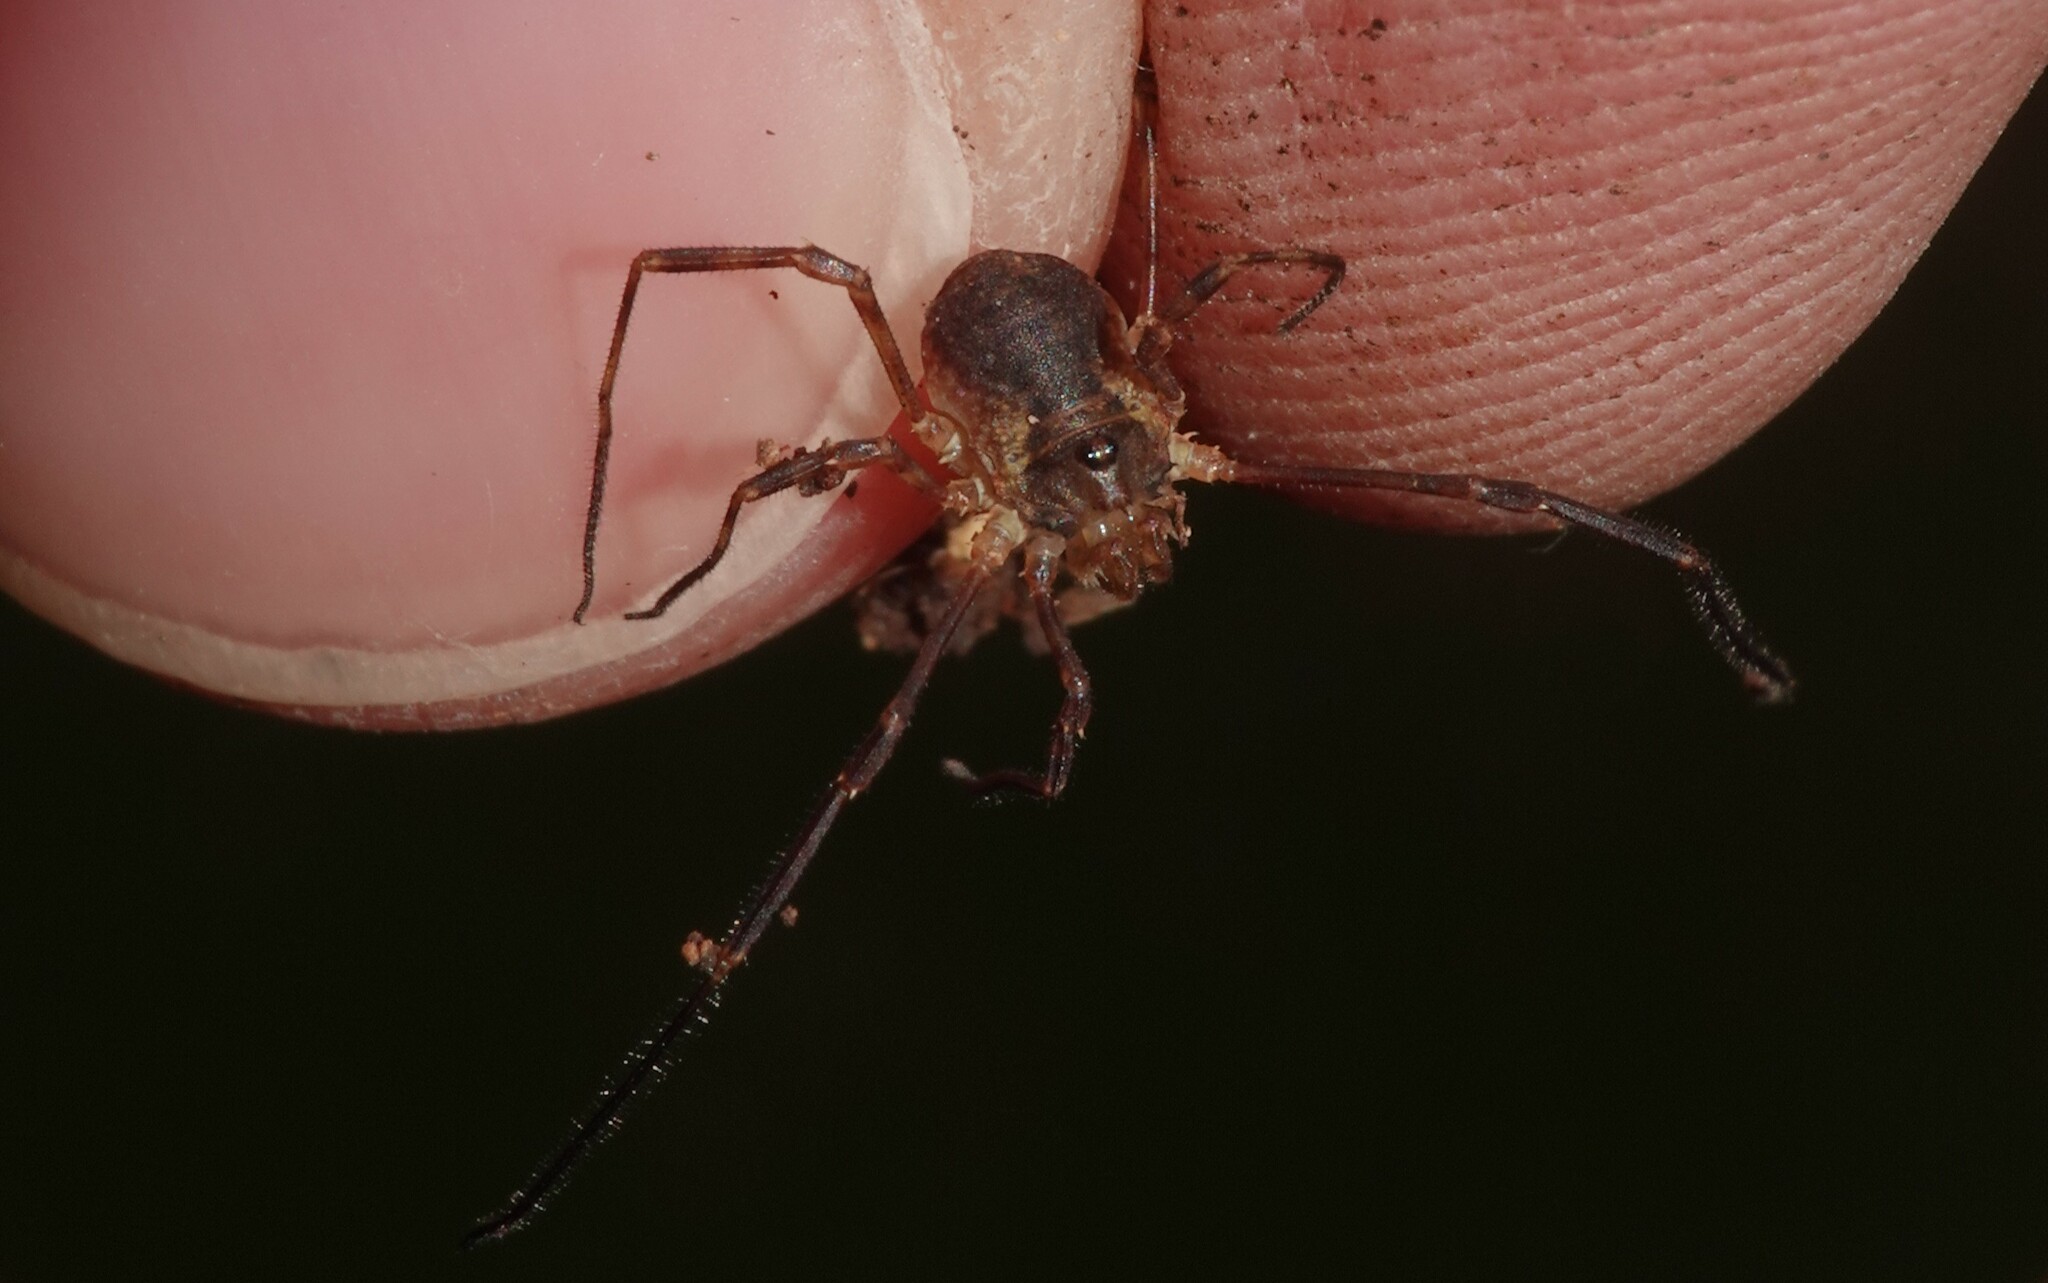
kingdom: Animalia
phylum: Arthropoda
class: Arachnida
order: Opiliones
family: Phalangiidae
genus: Lophopilio
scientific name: Lophopilio palpinalis
